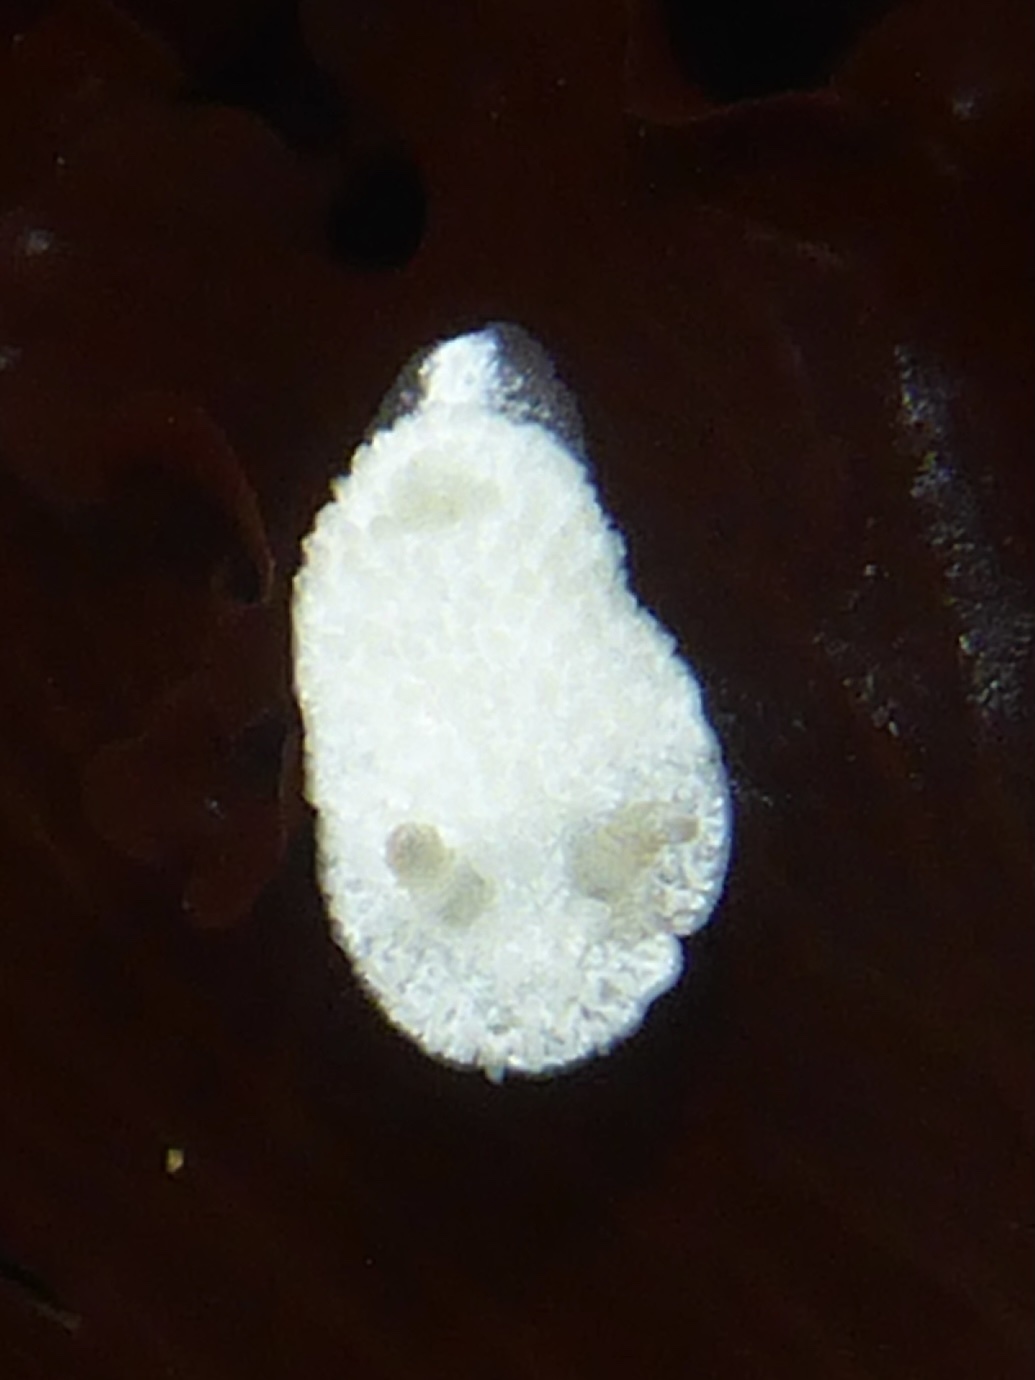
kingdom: Animalia
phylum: Mollusca
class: Gastropoda
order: Nudibranchia
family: Calycidorididae
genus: Diaphorodoris
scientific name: Diaphorodoris lirulatocauda
